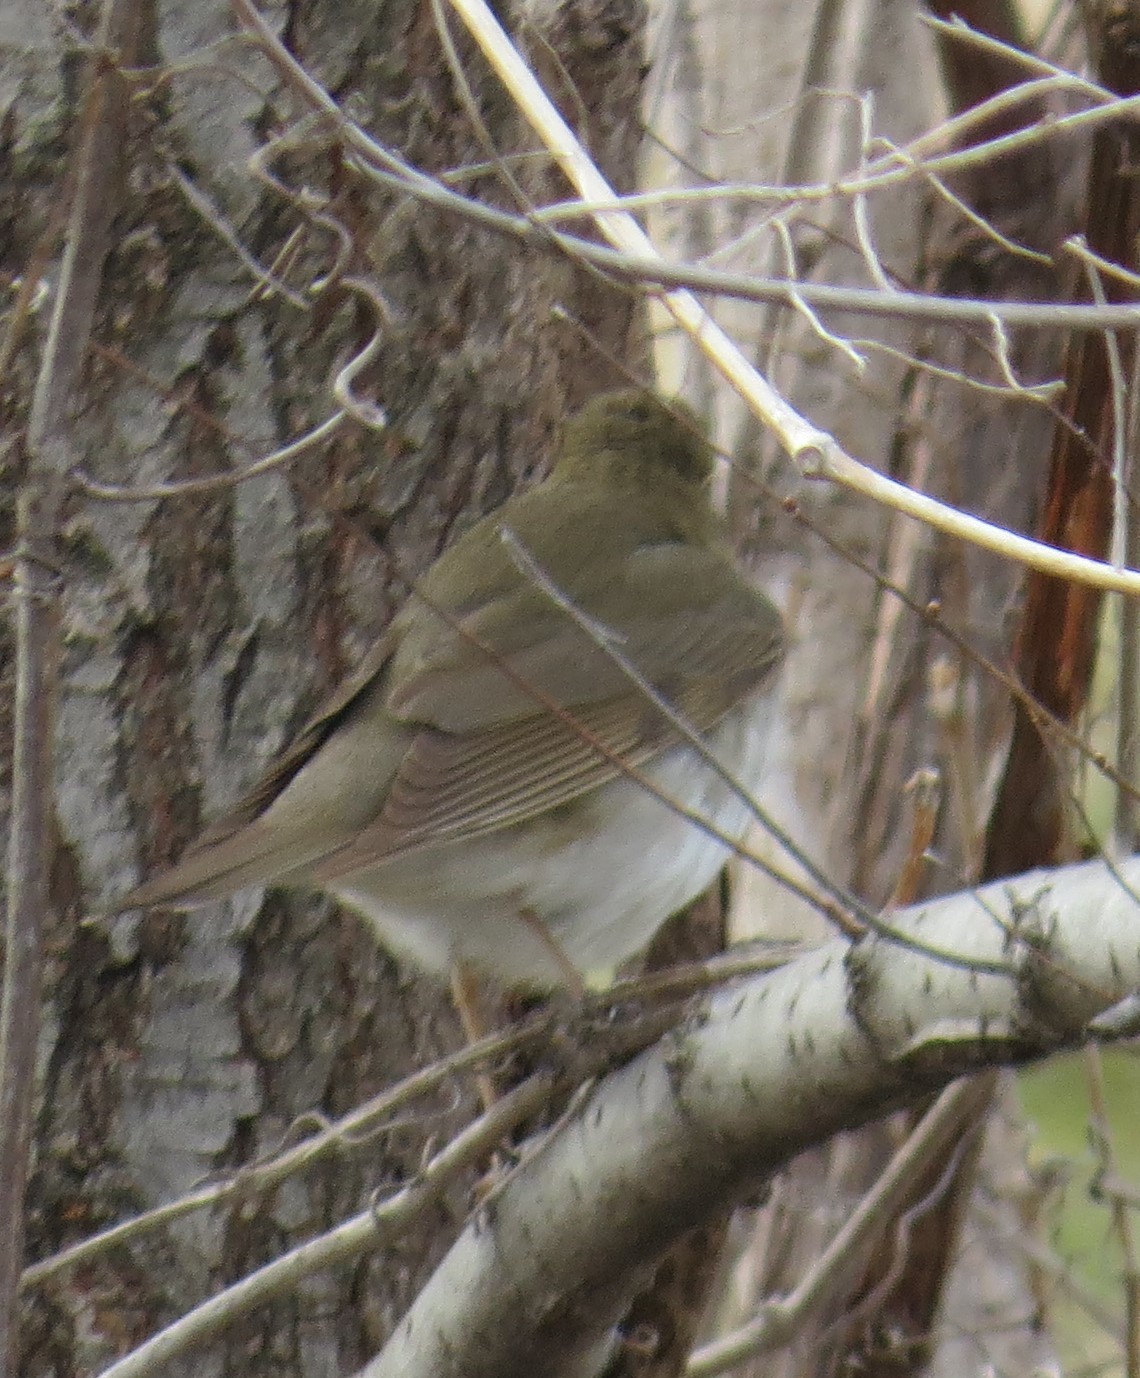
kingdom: Animalia
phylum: Chordata
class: Aves
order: Passeriformes
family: Turdidae
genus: Catharus
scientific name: Catharus ustulatus
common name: Swainson's thrush
